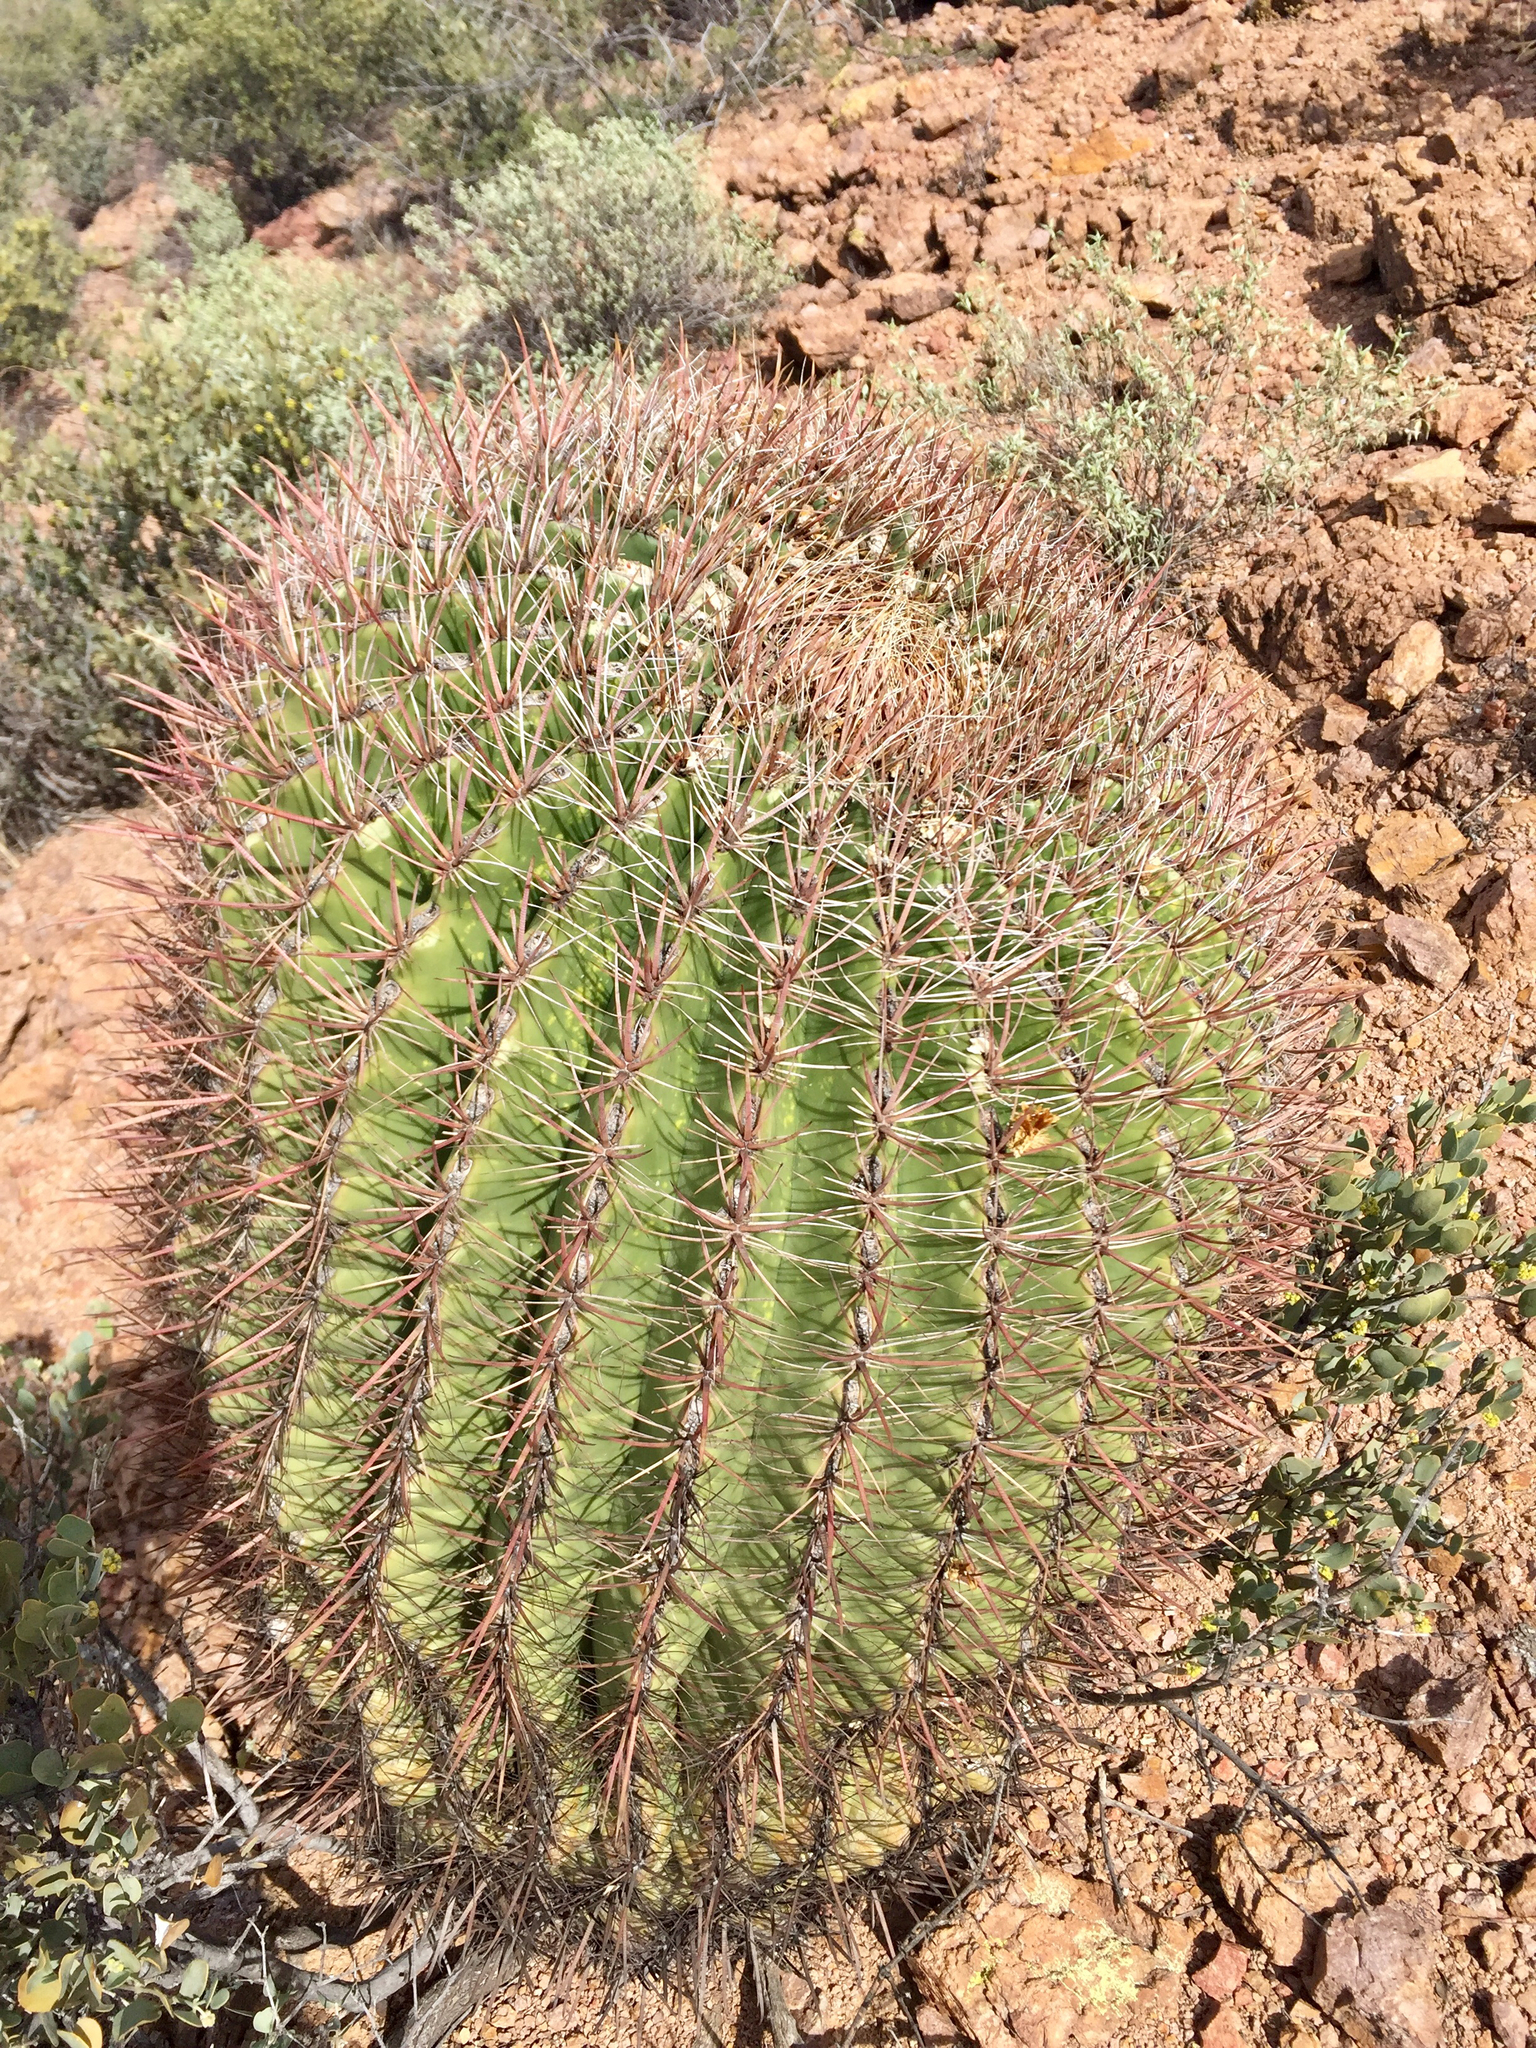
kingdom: Plantae
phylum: Tracheophyta
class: Magnoliopsida
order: Caryophyllales
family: Cactaceae
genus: Ferocactus
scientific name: Ferocactus wislizeni
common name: Candy barrel cactus
